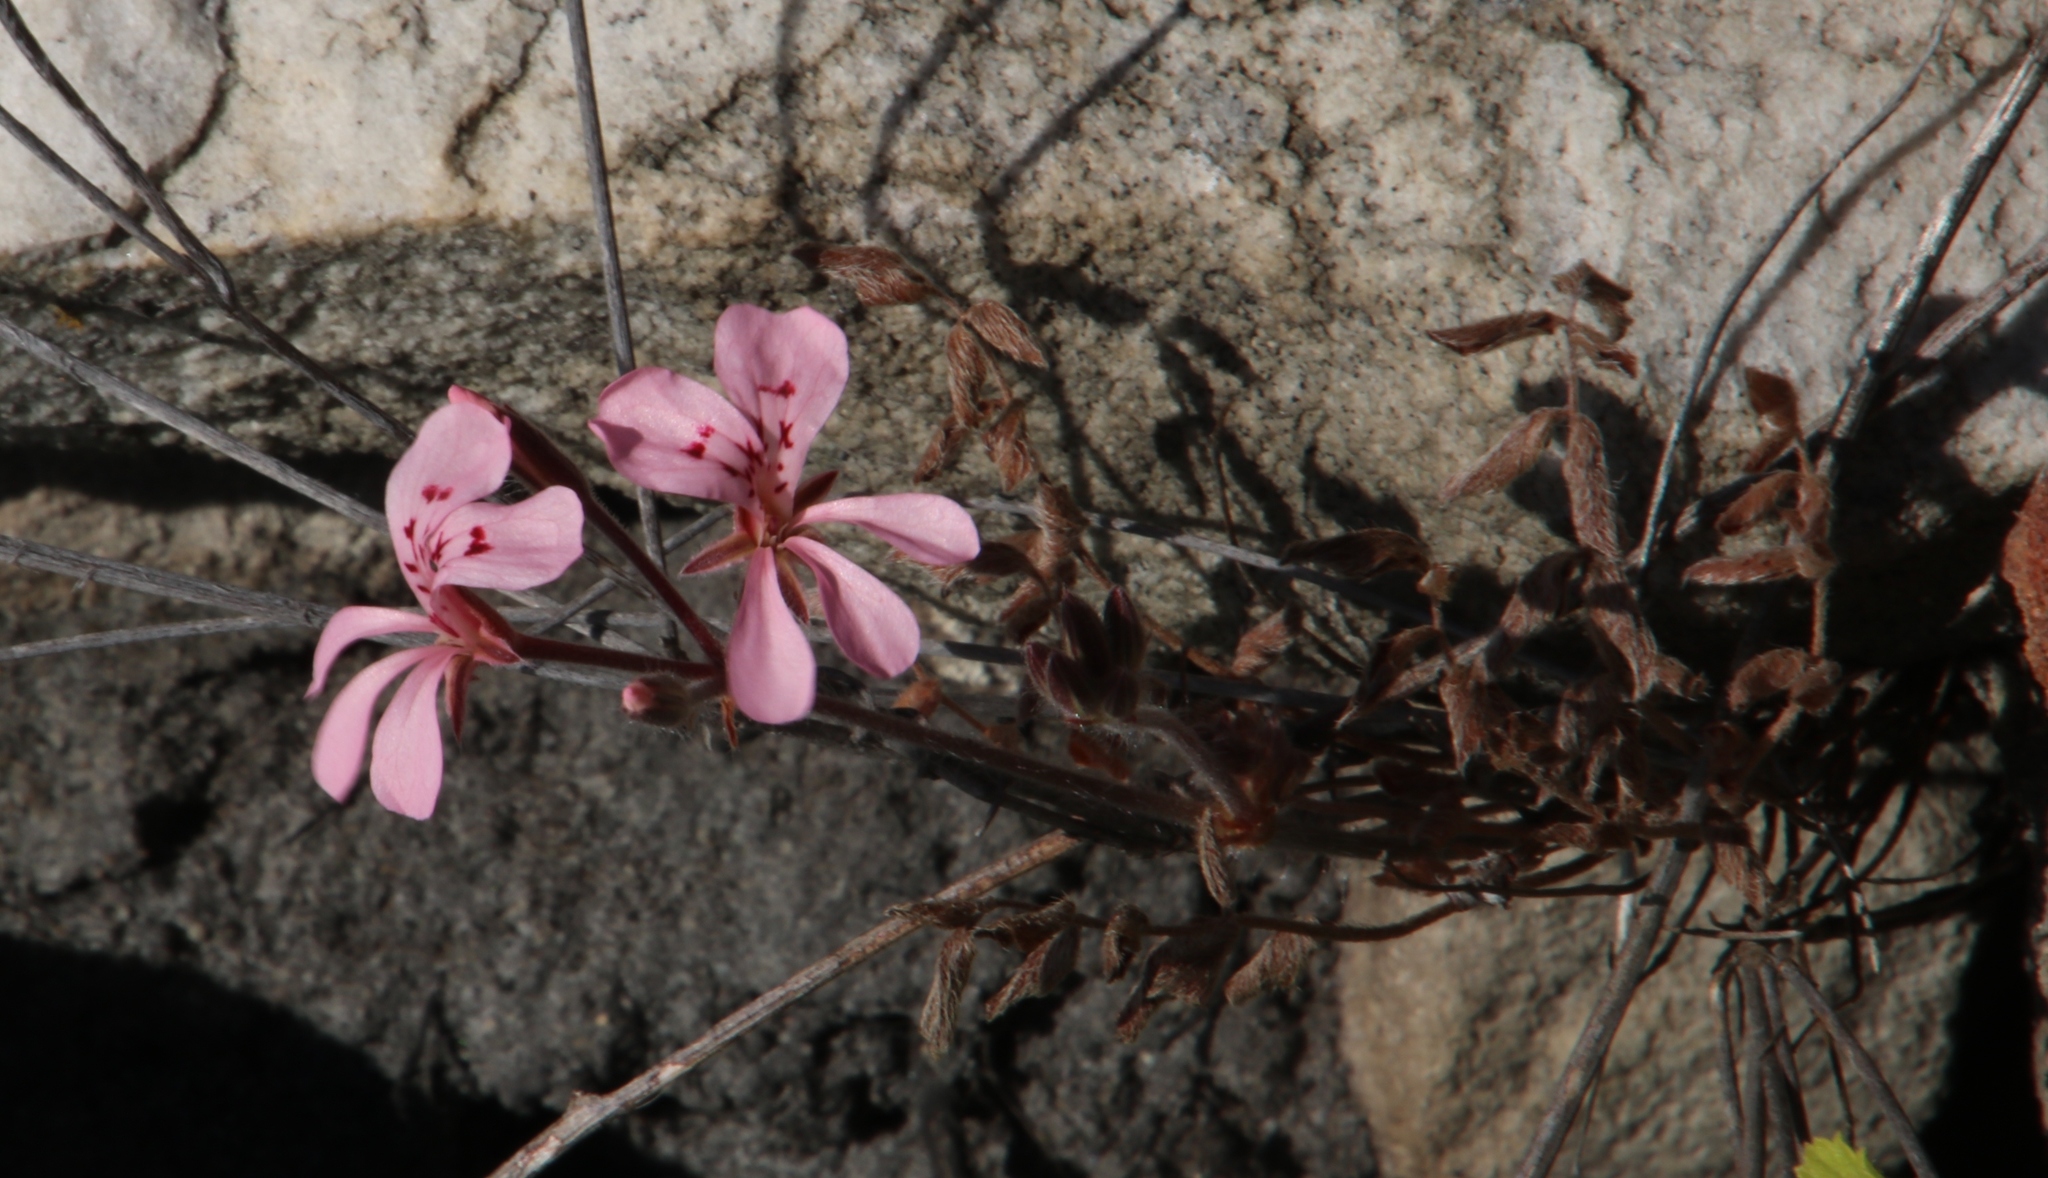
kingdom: Plantae
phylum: Tracheophyta
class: Magnoliopsida
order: Geraniales
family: Geraniaceae
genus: Pelargonium
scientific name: Pelargonium pinnatum
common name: Pinnated pelargonium
